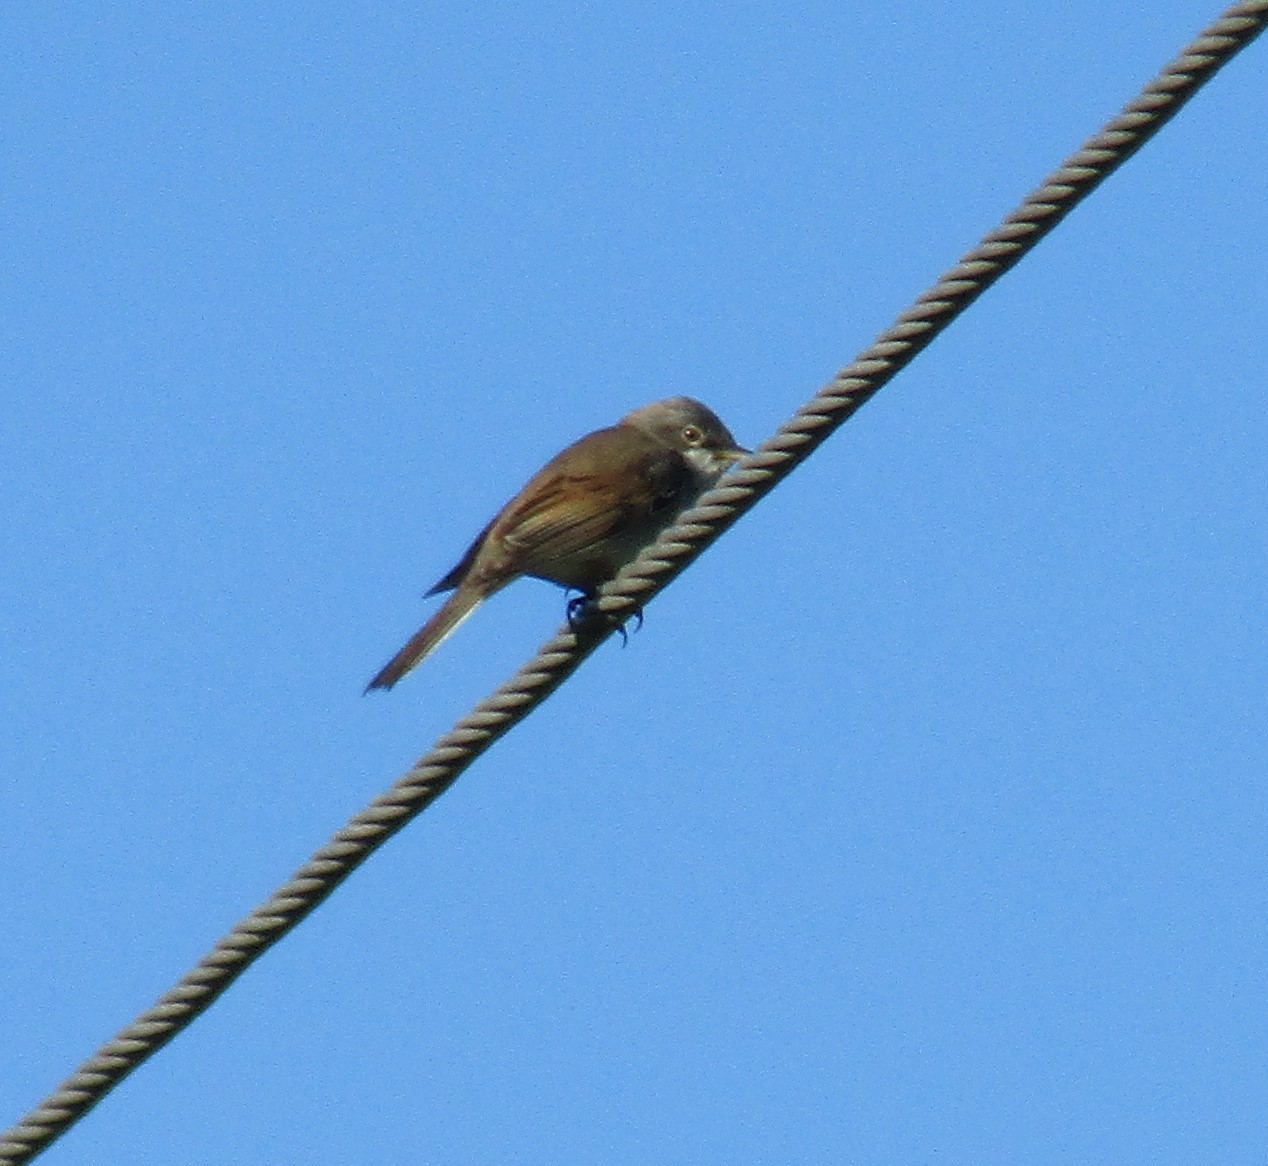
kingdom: Animalia
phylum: Chordata
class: Aves
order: Passeriformes
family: Sylviidae
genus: Sylvia
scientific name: Sylvia communis
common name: Common whitethroat
